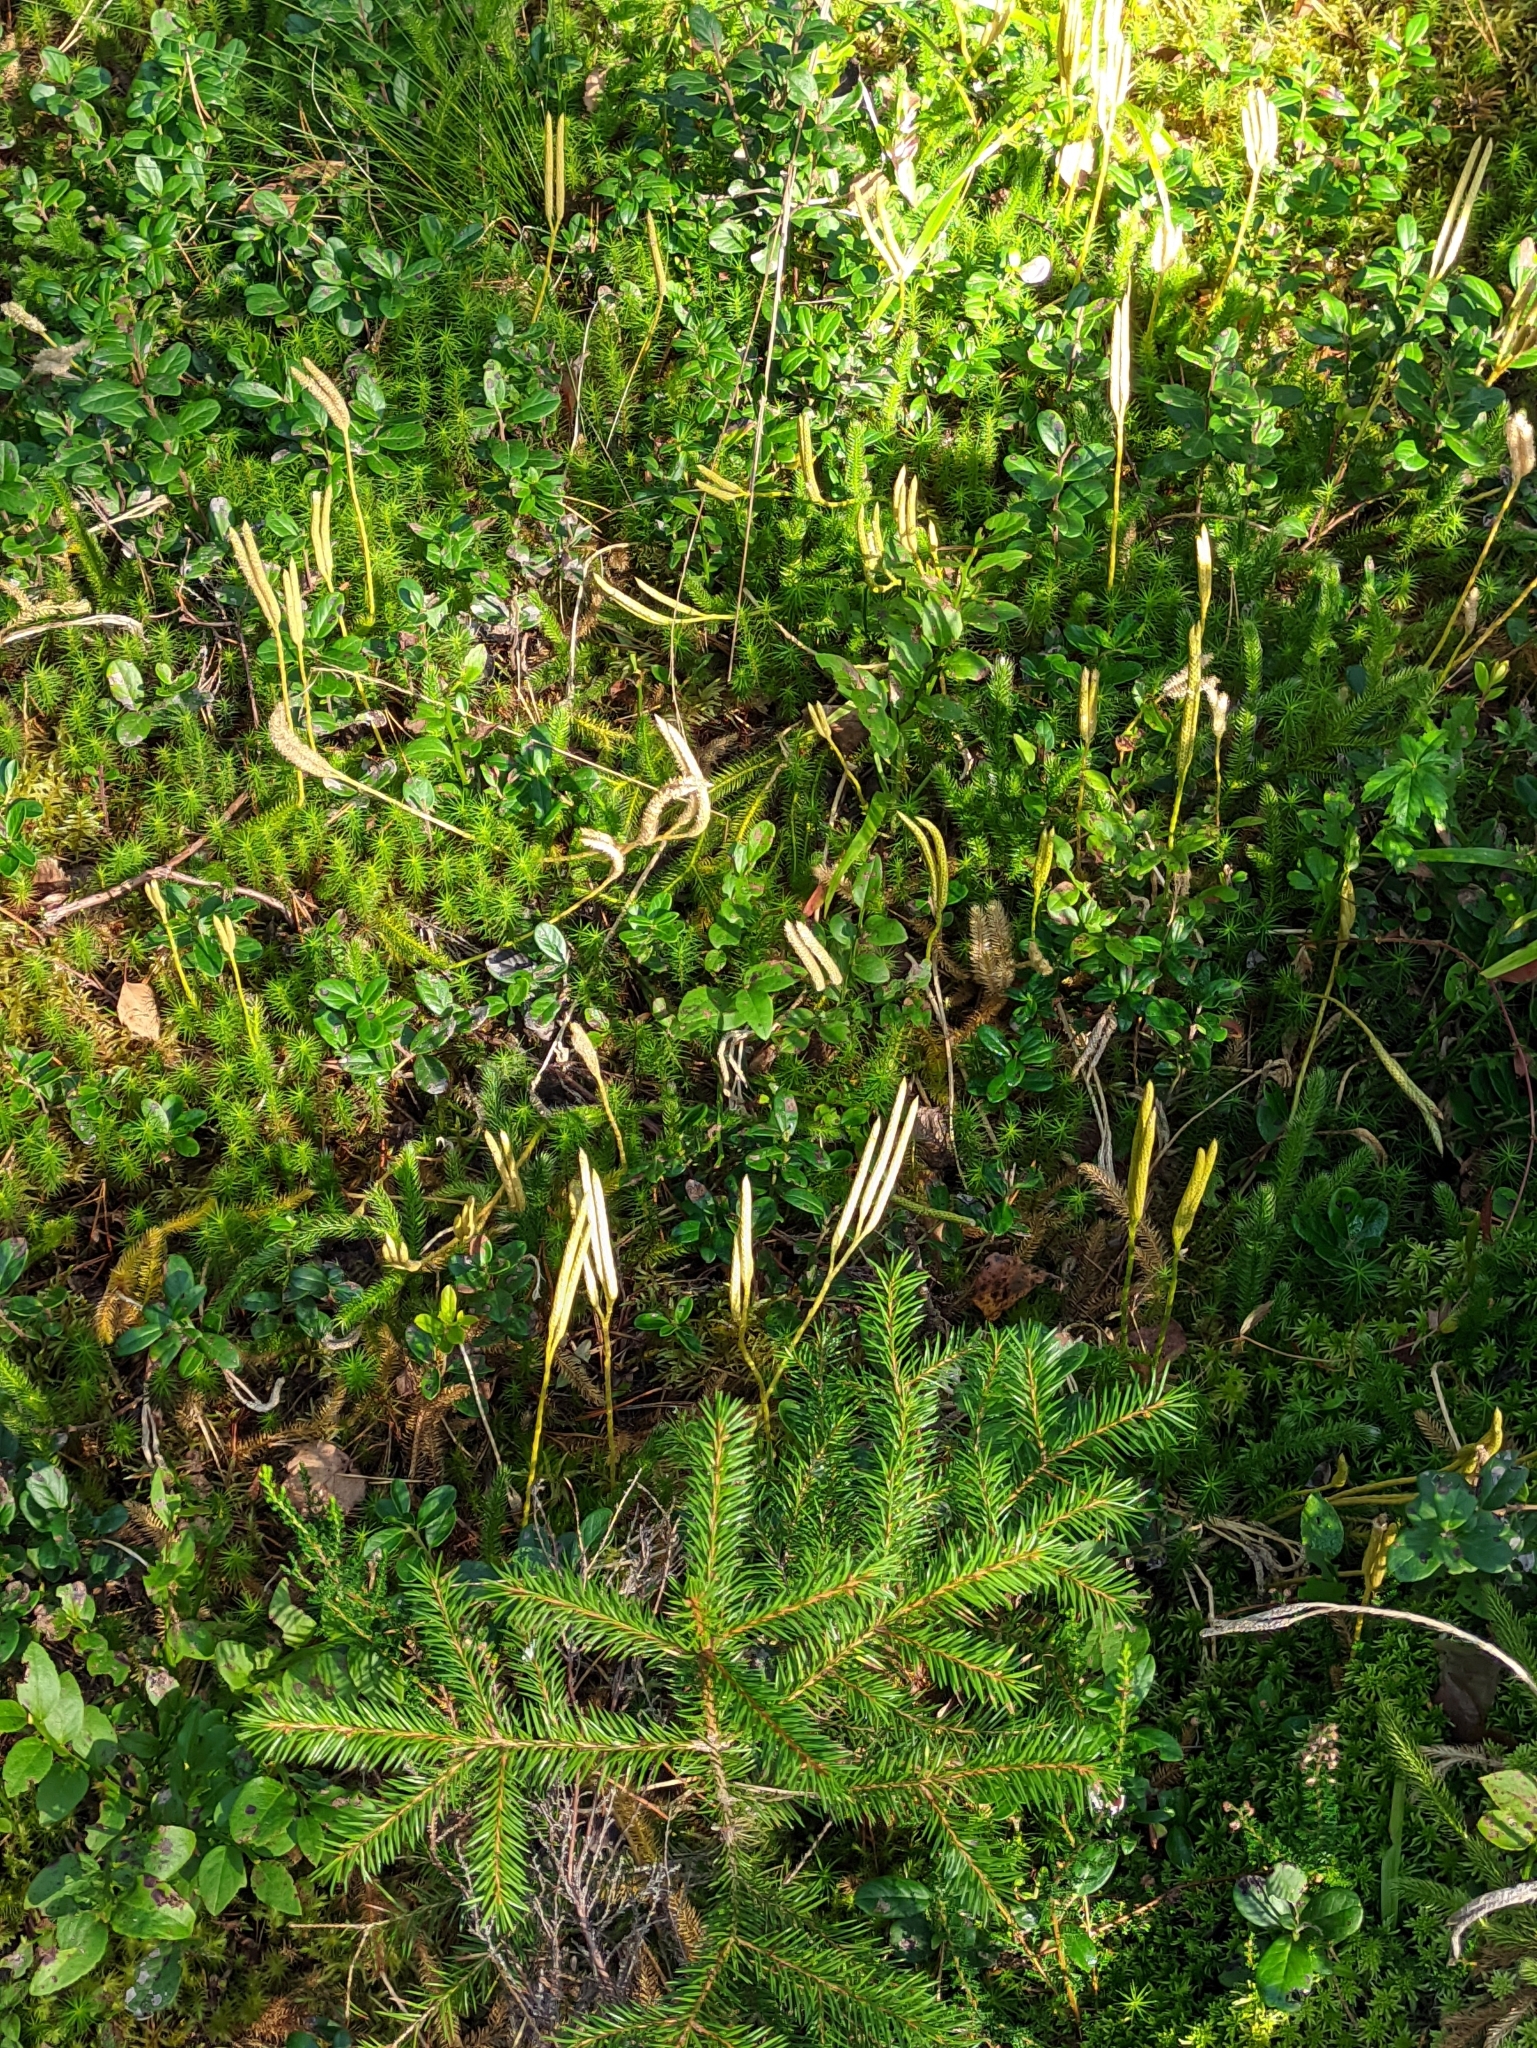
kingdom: Plantae
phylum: Tracheophyta
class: Lycopodiopsida
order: Lycopodiales
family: Lycopodiaceae
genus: Lycopodium
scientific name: Lycopodium clavatum
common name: Stag's-horn clubmoss
